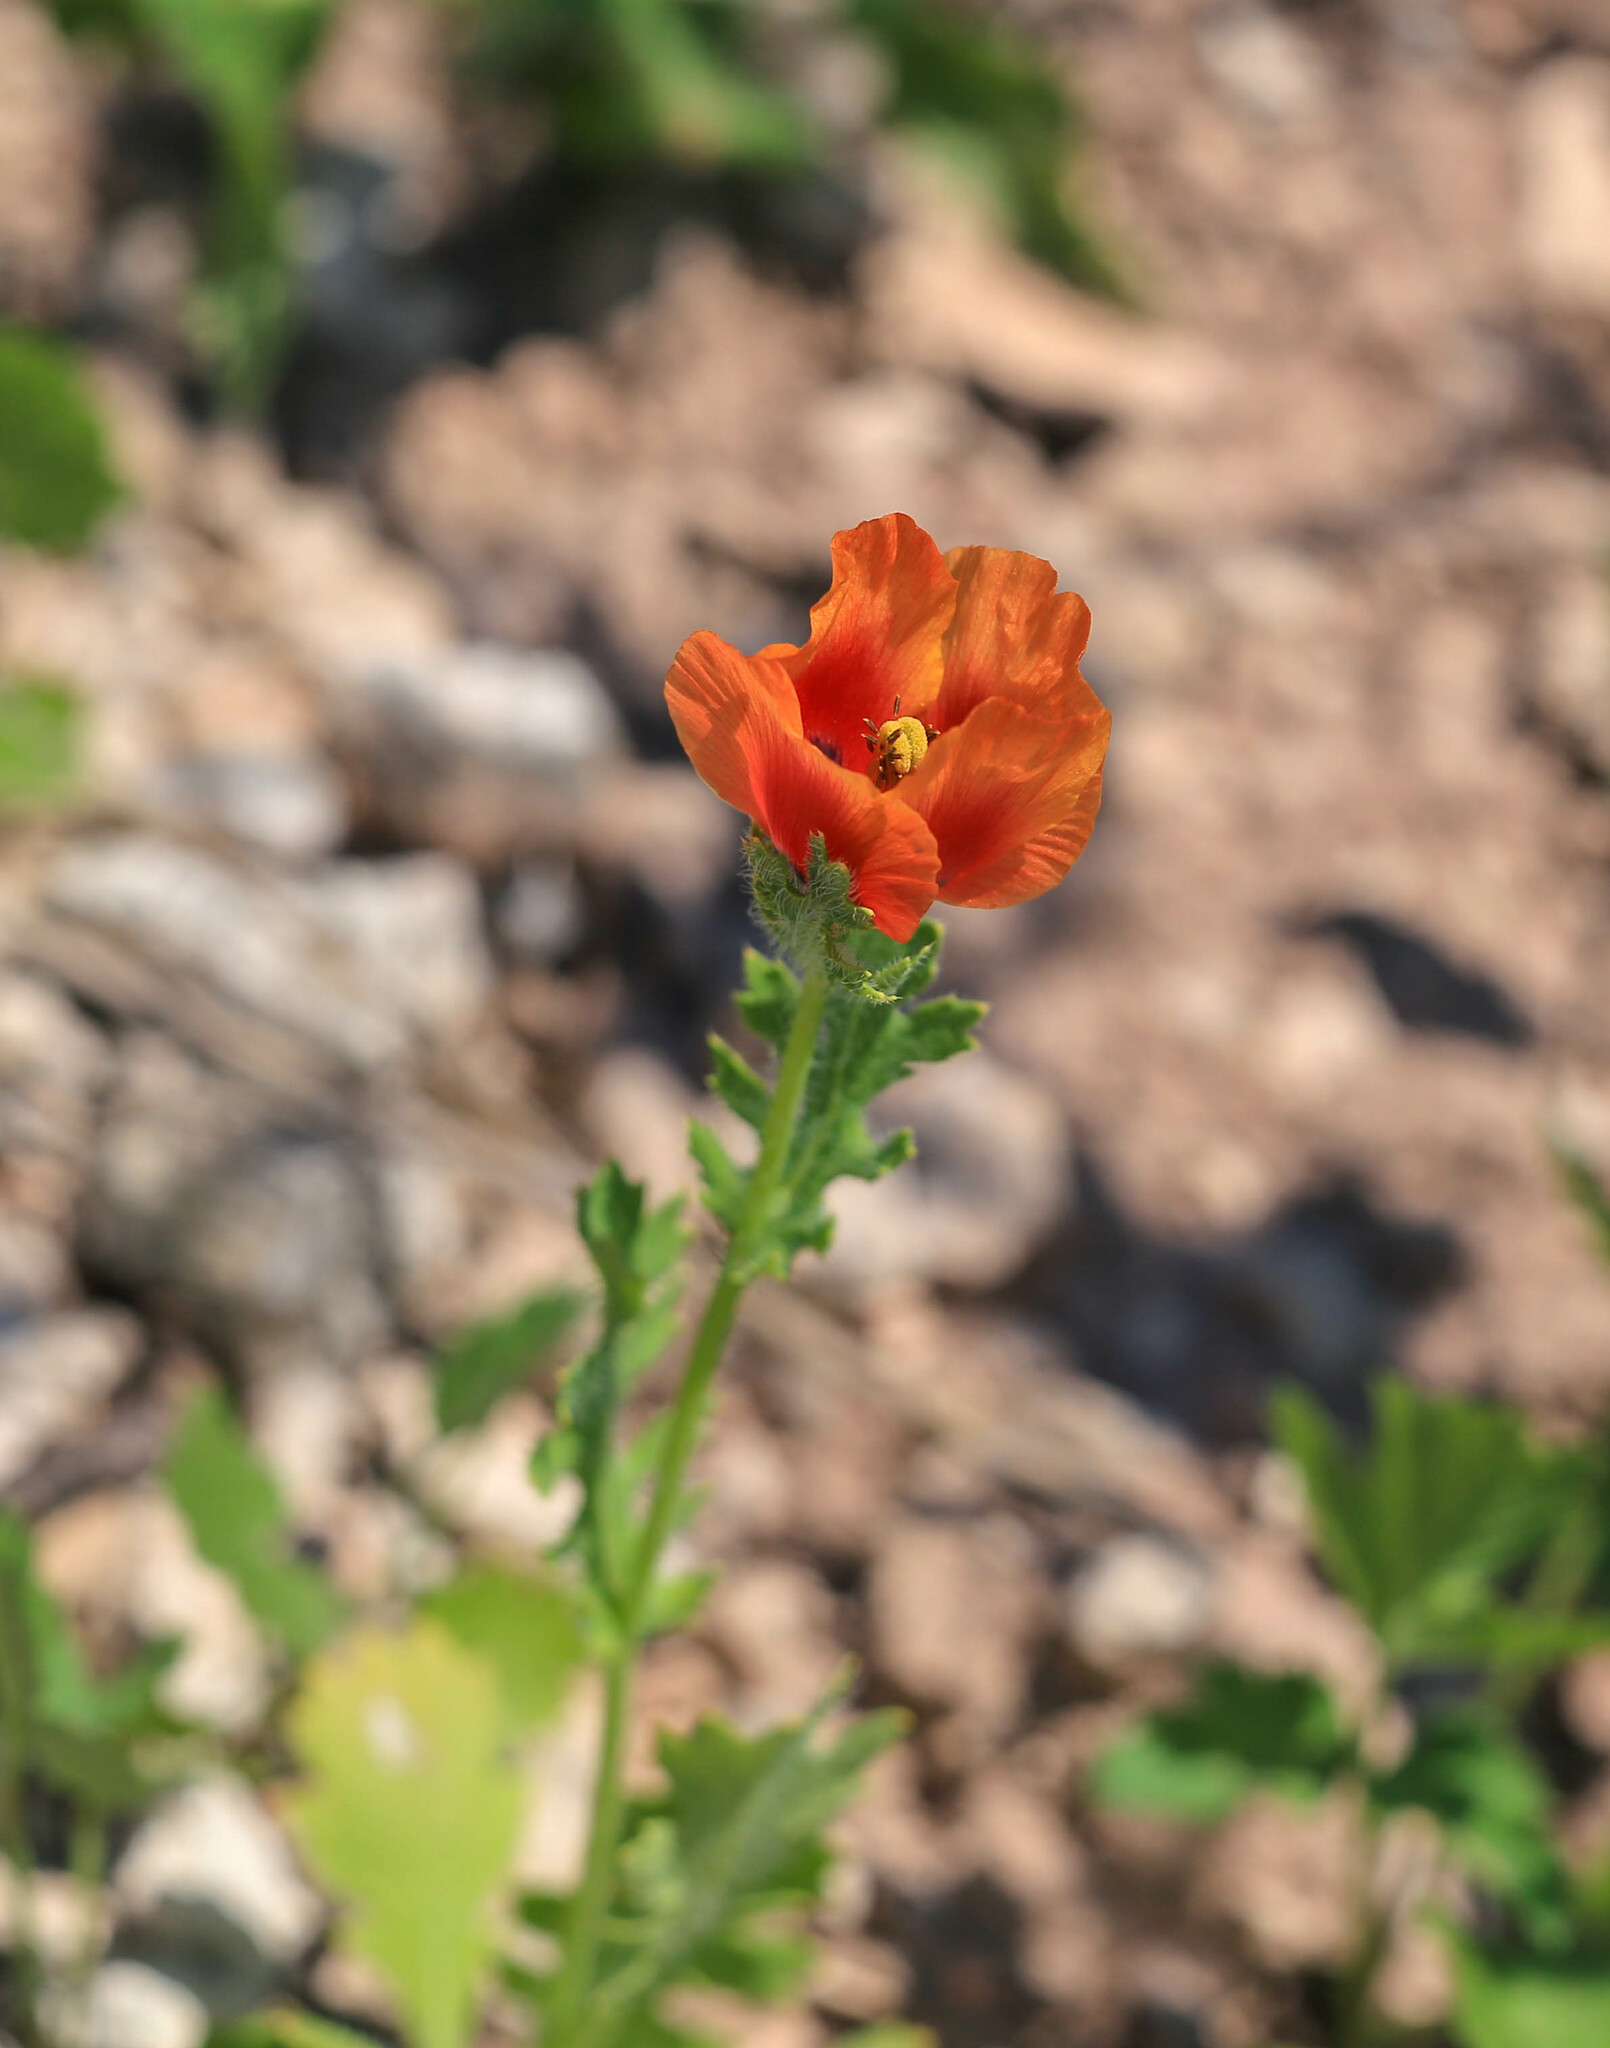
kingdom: Plantae
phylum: Tracheophyta
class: Magnoliopsida
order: Ranunculales
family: Papaveraceae
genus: Glaucium
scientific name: Glaucium corniculatum
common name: Red horned-poppy
